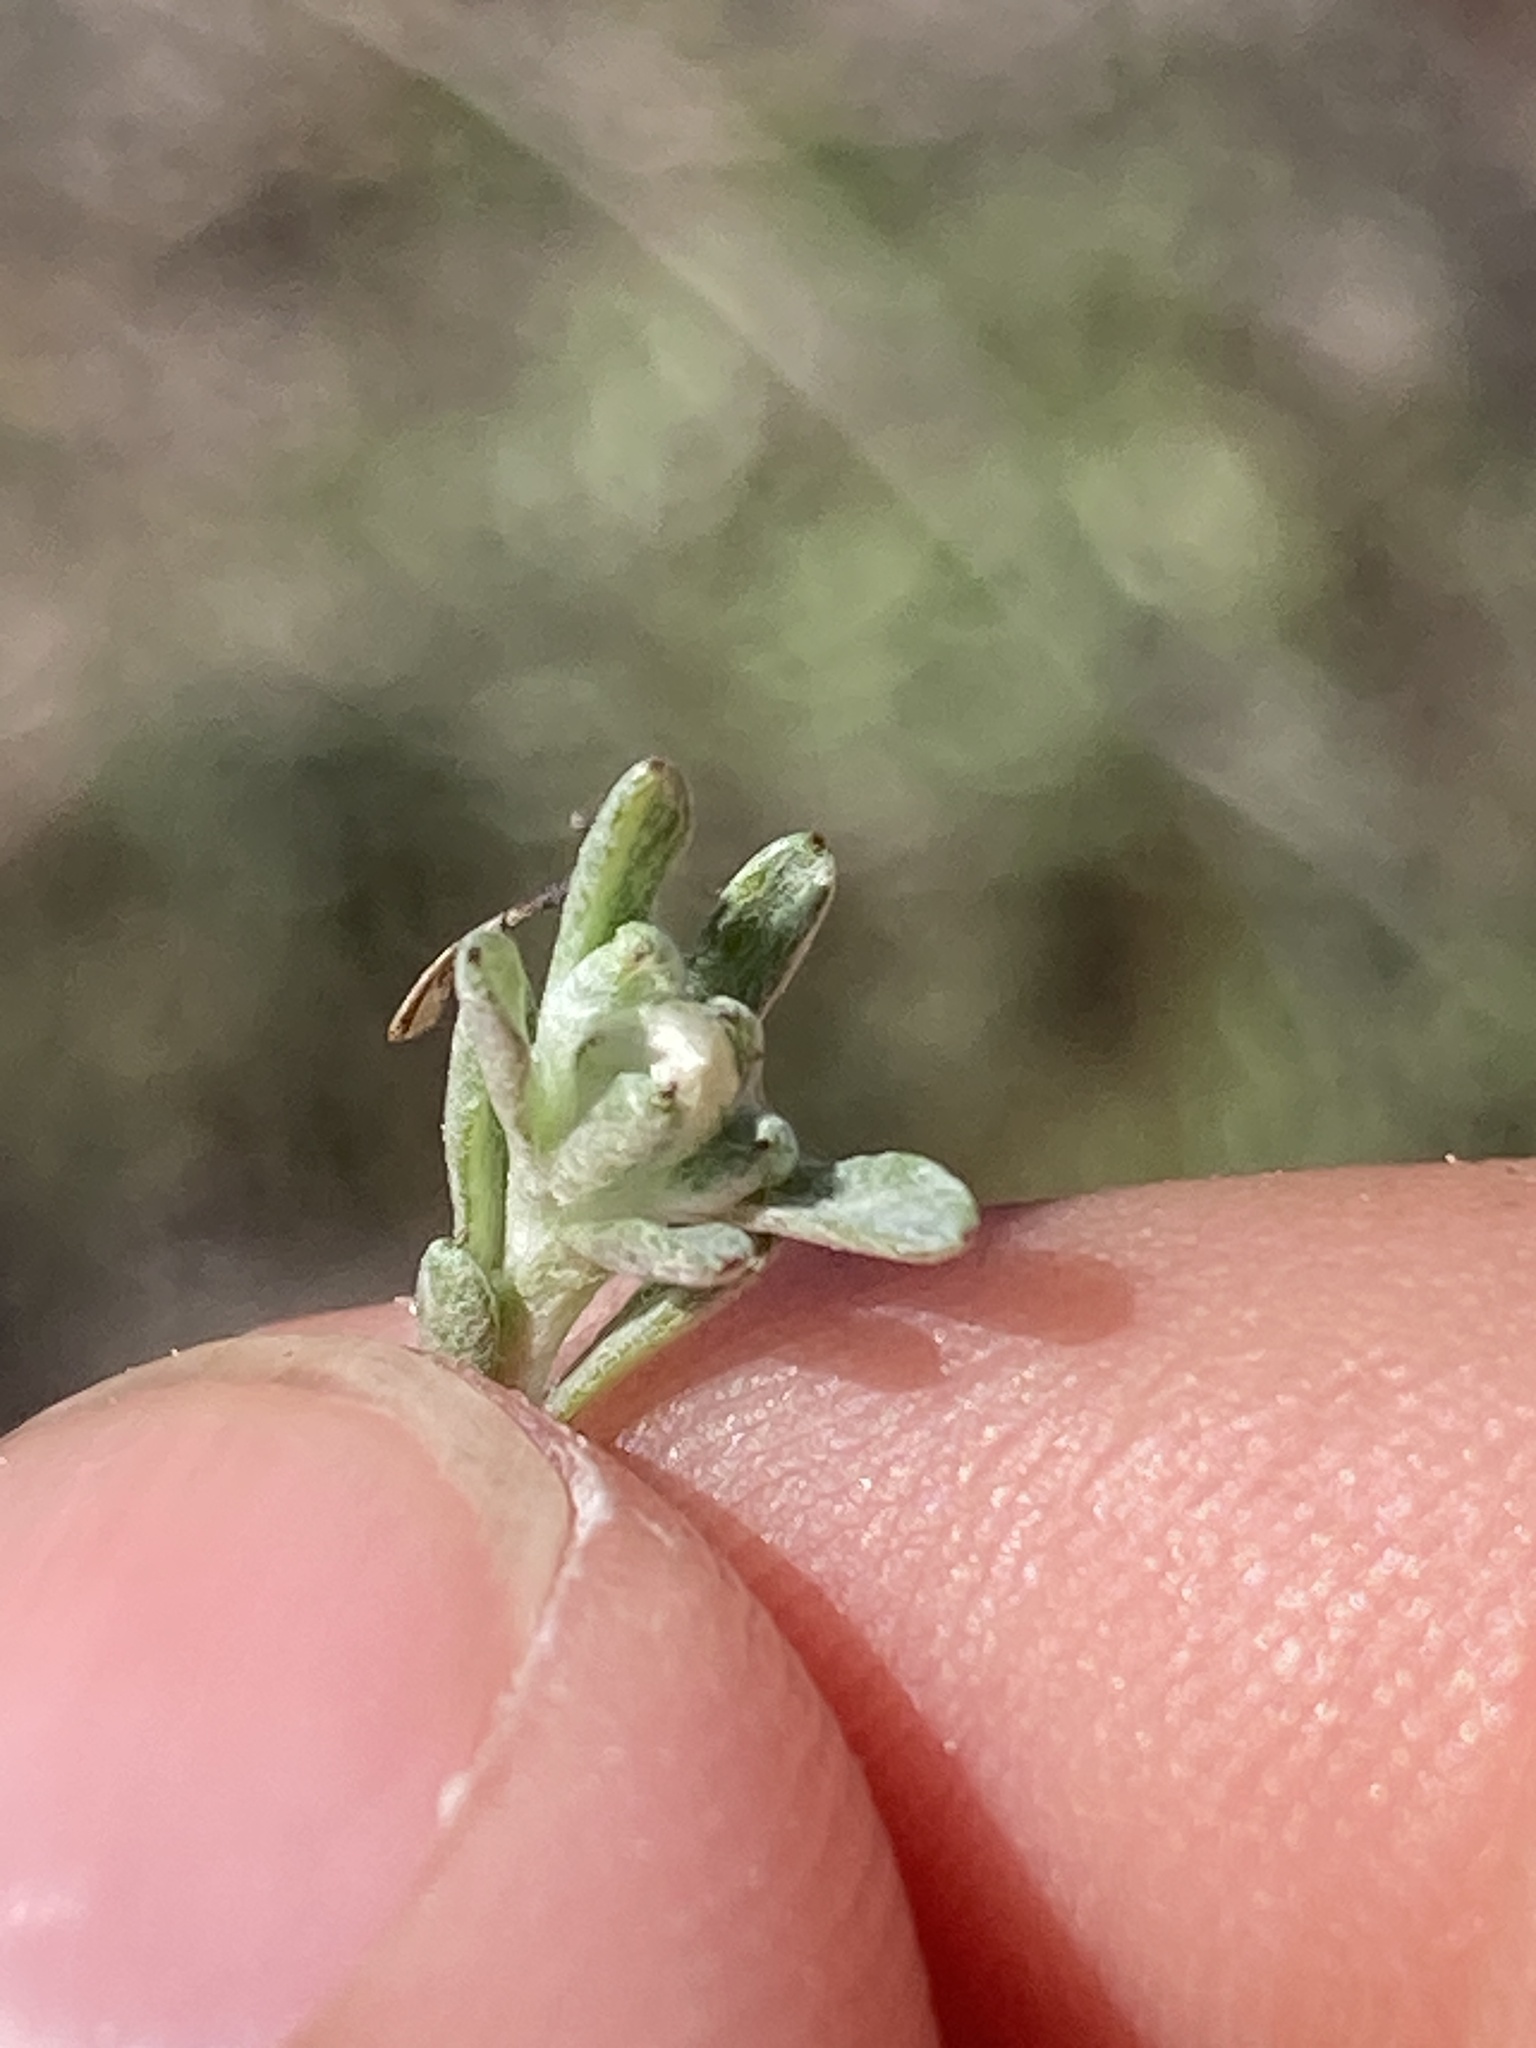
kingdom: Plantae
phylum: Tracheophyta
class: Magnoliopsida
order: Asterales
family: Asteraceae
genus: Stylocline
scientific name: Stylocline gnaphaloides
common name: Everlasting nest-straw
